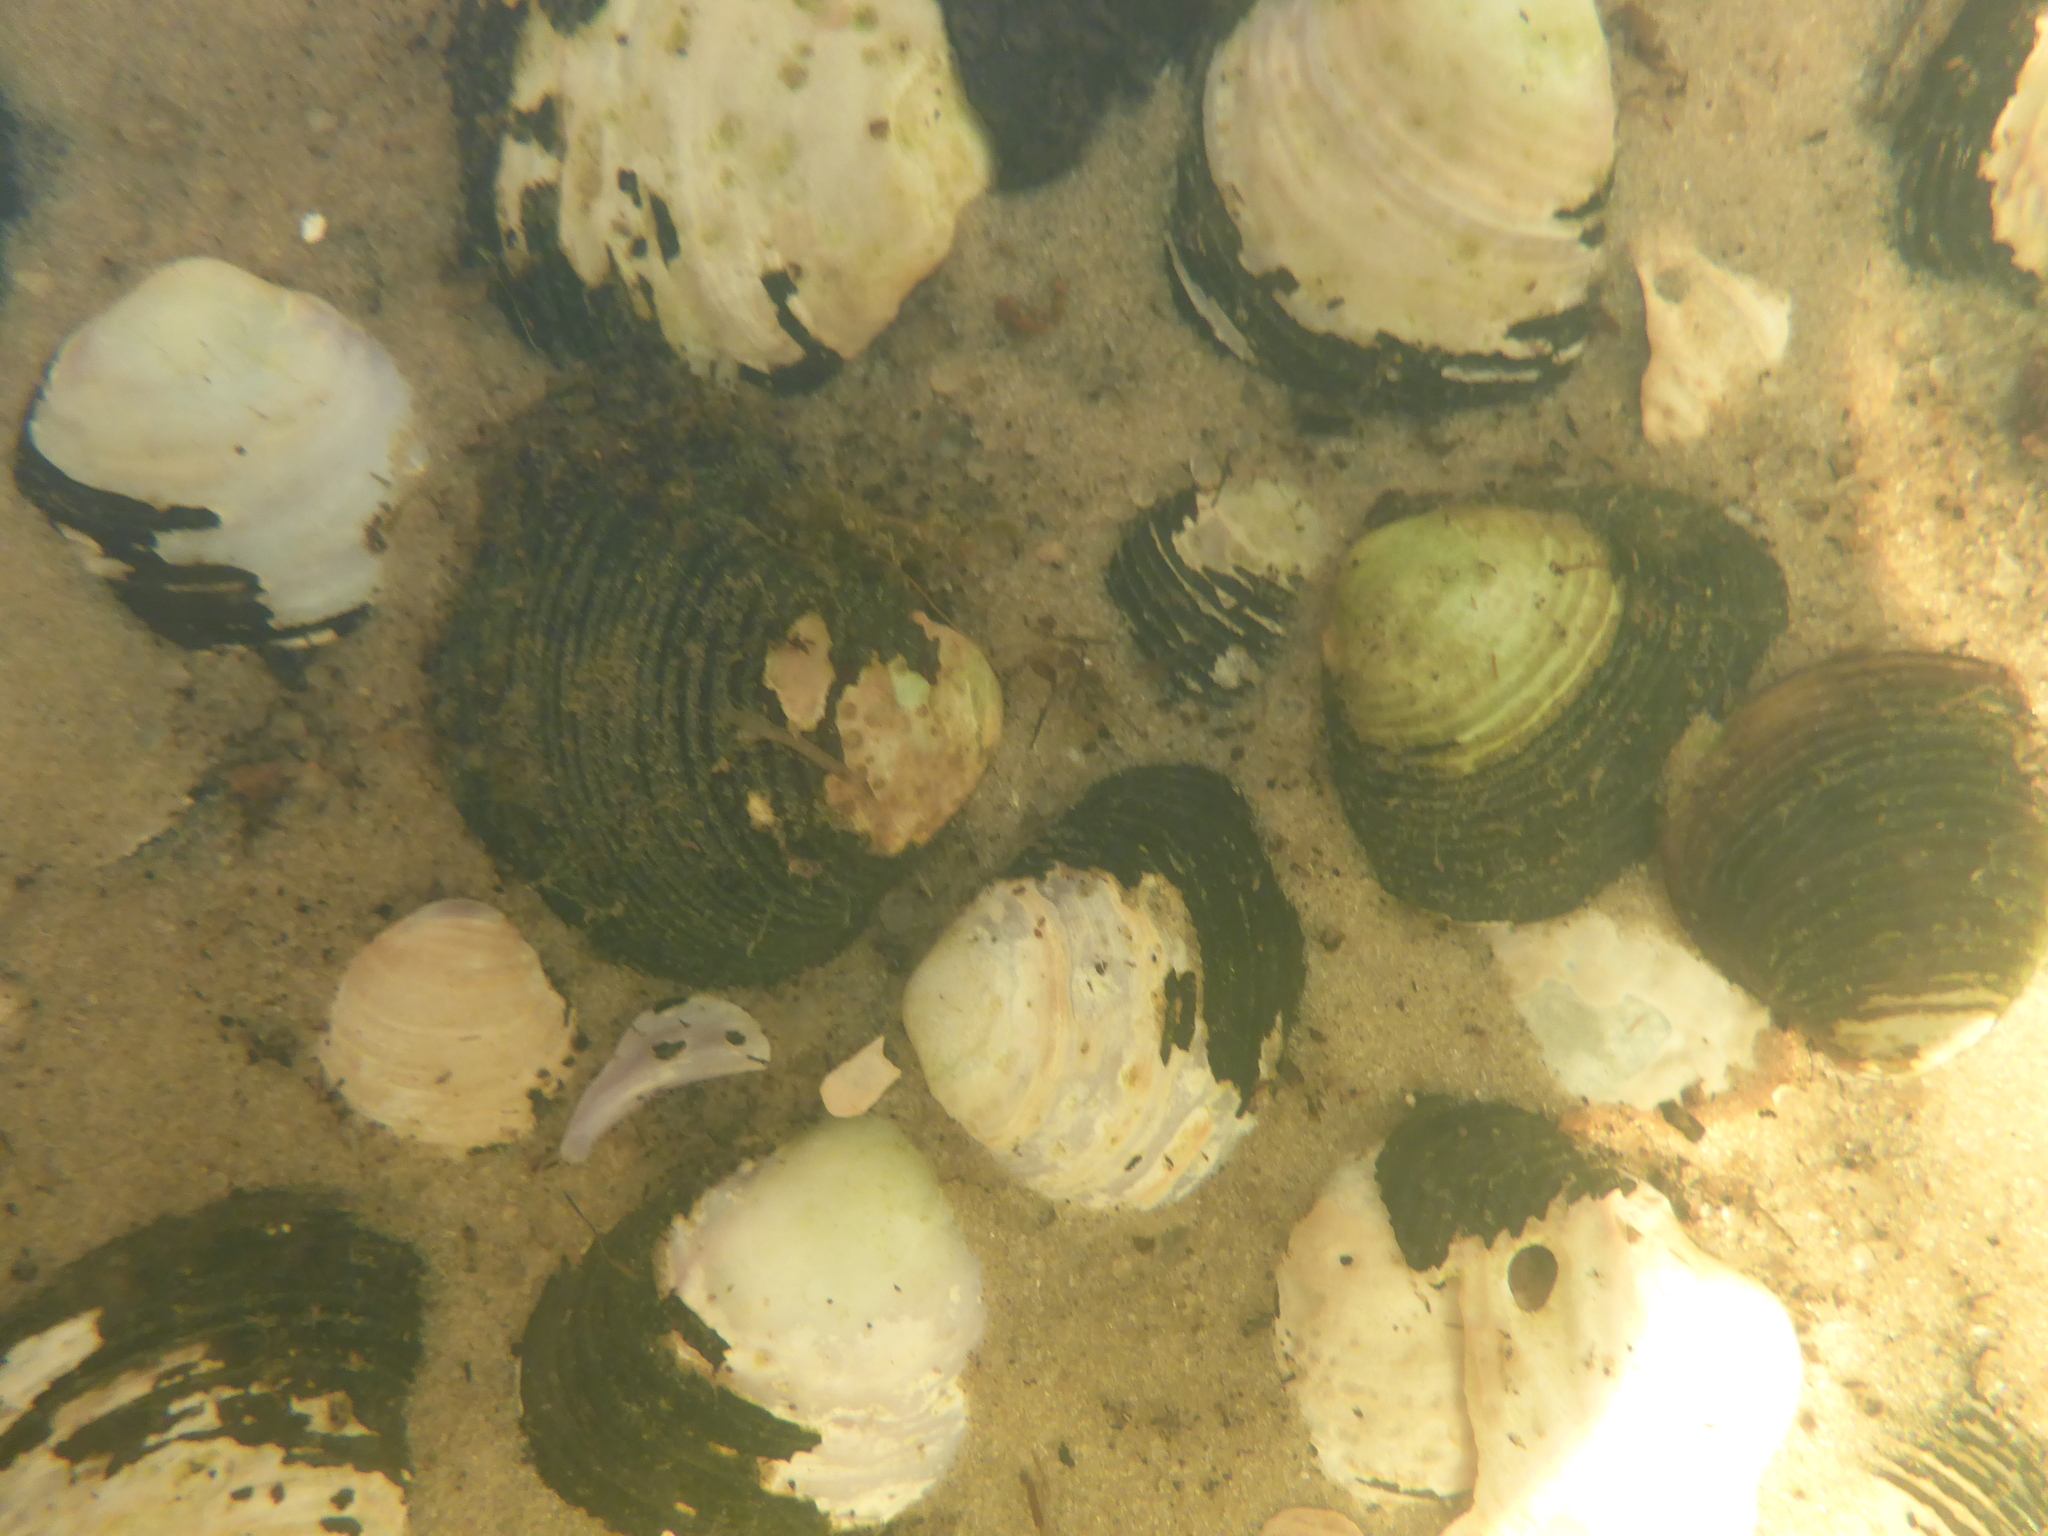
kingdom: Animalia
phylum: Mollusca
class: Bivalvia
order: Venerida
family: Cyrenidae
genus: Corbicula
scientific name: Corbicula fluminea
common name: Asian clam
